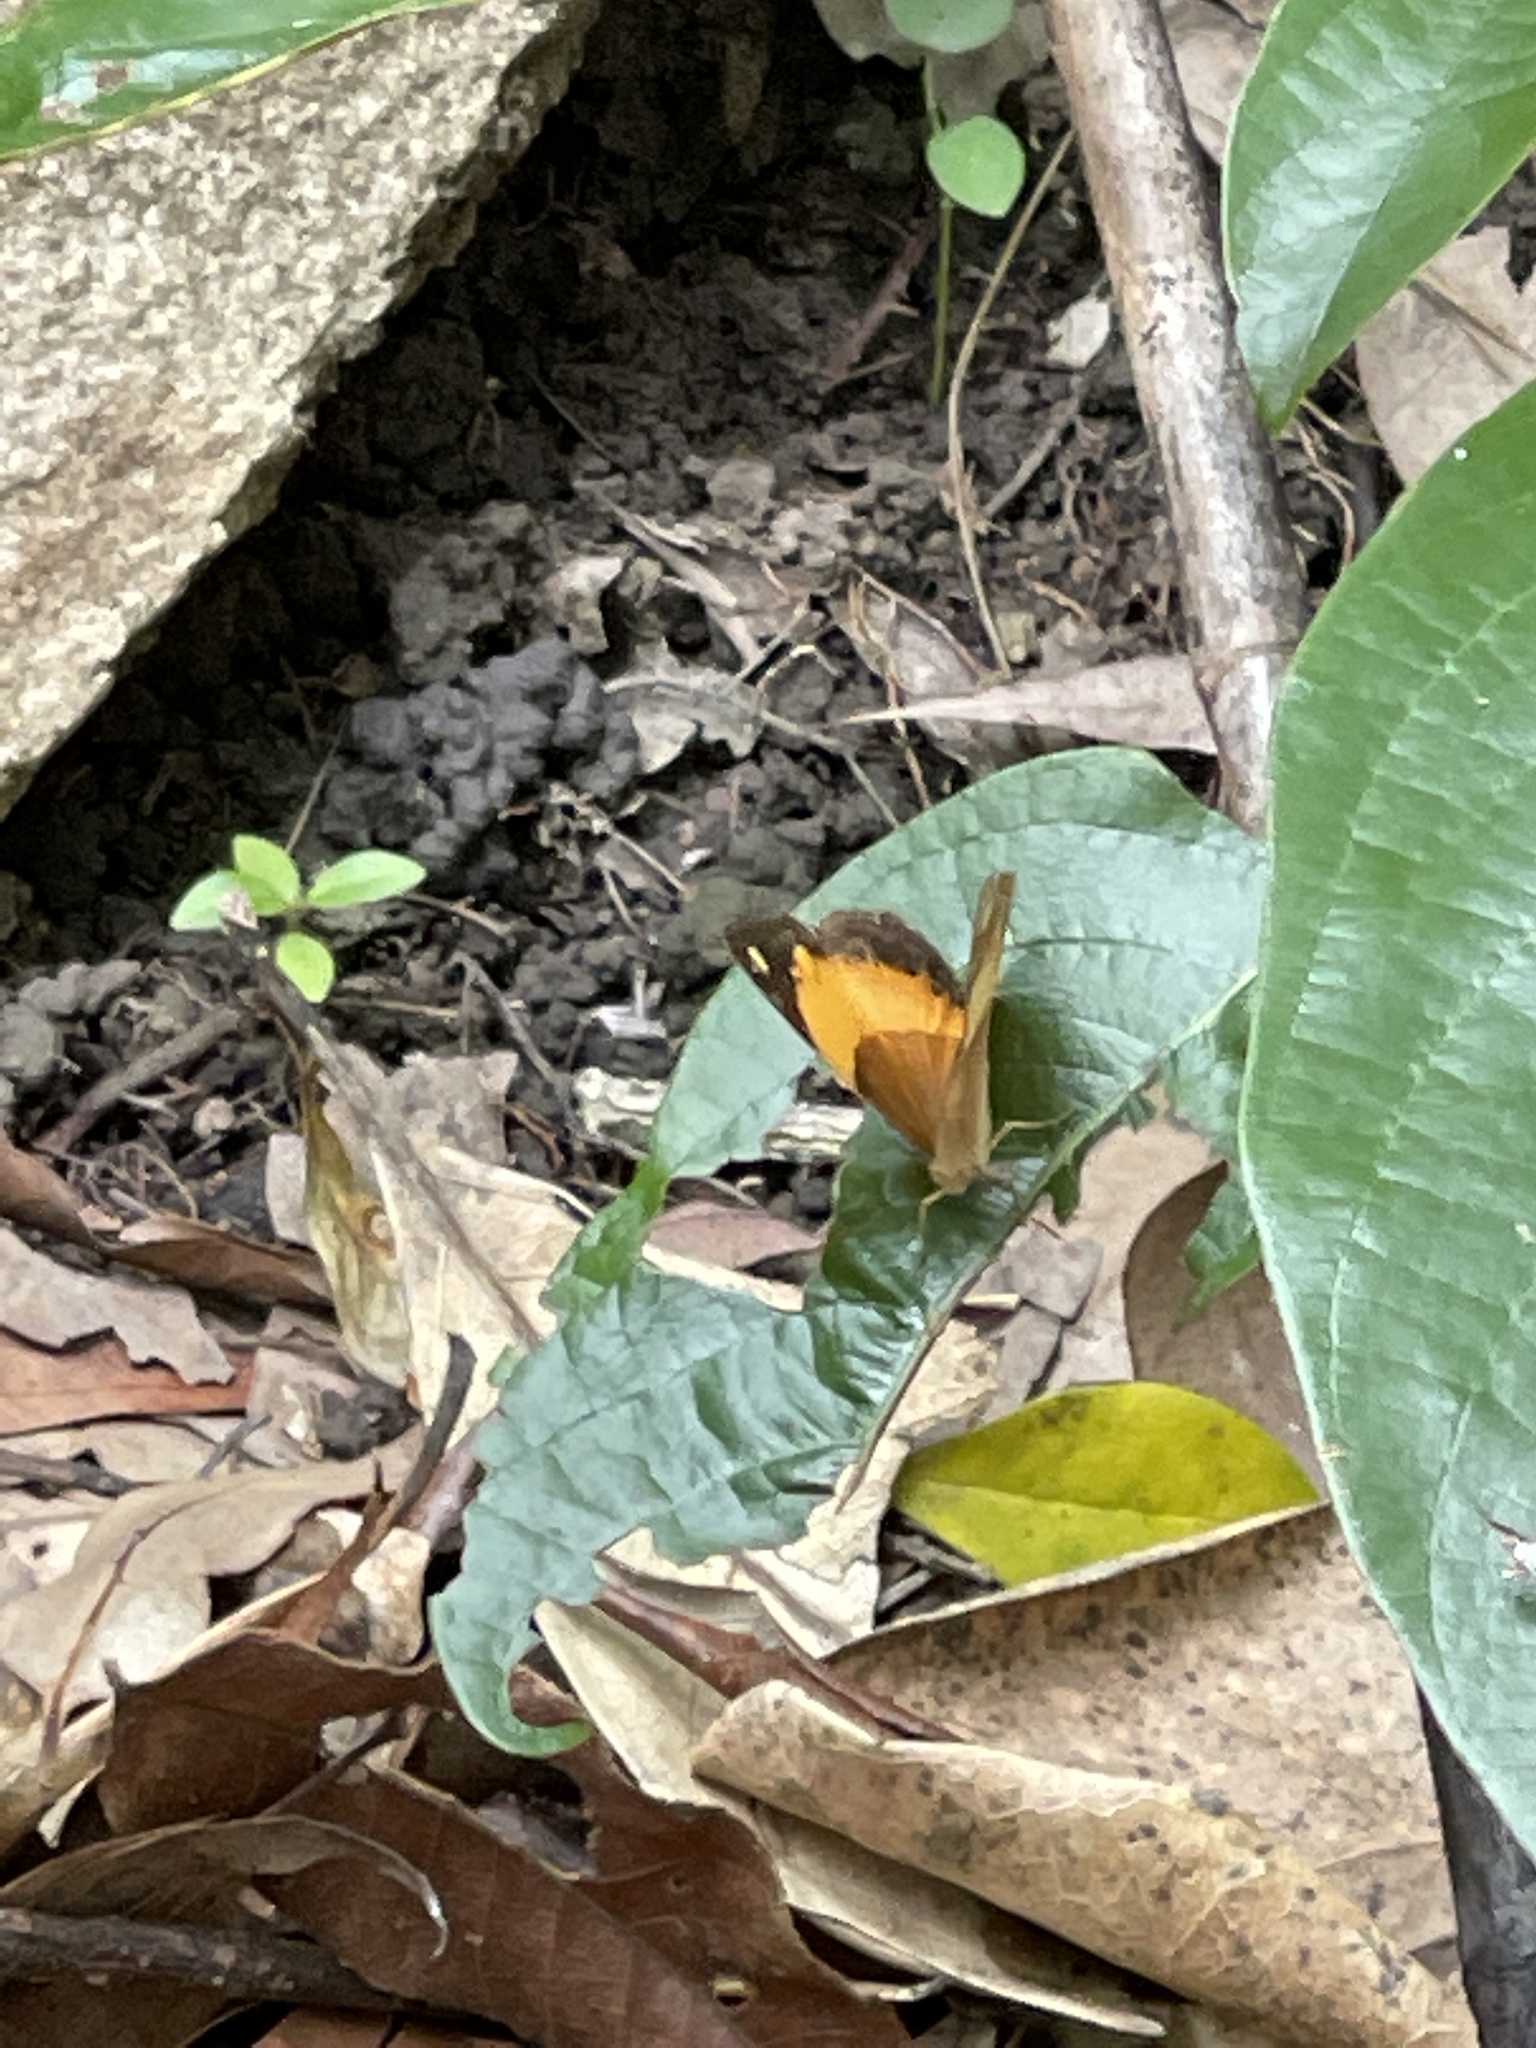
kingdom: Animalia
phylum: Arthropoda
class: Insecta
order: Lepidoptera
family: Nymphalidae
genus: Cupha
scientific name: Cupha prosope
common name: Bordered rustic
